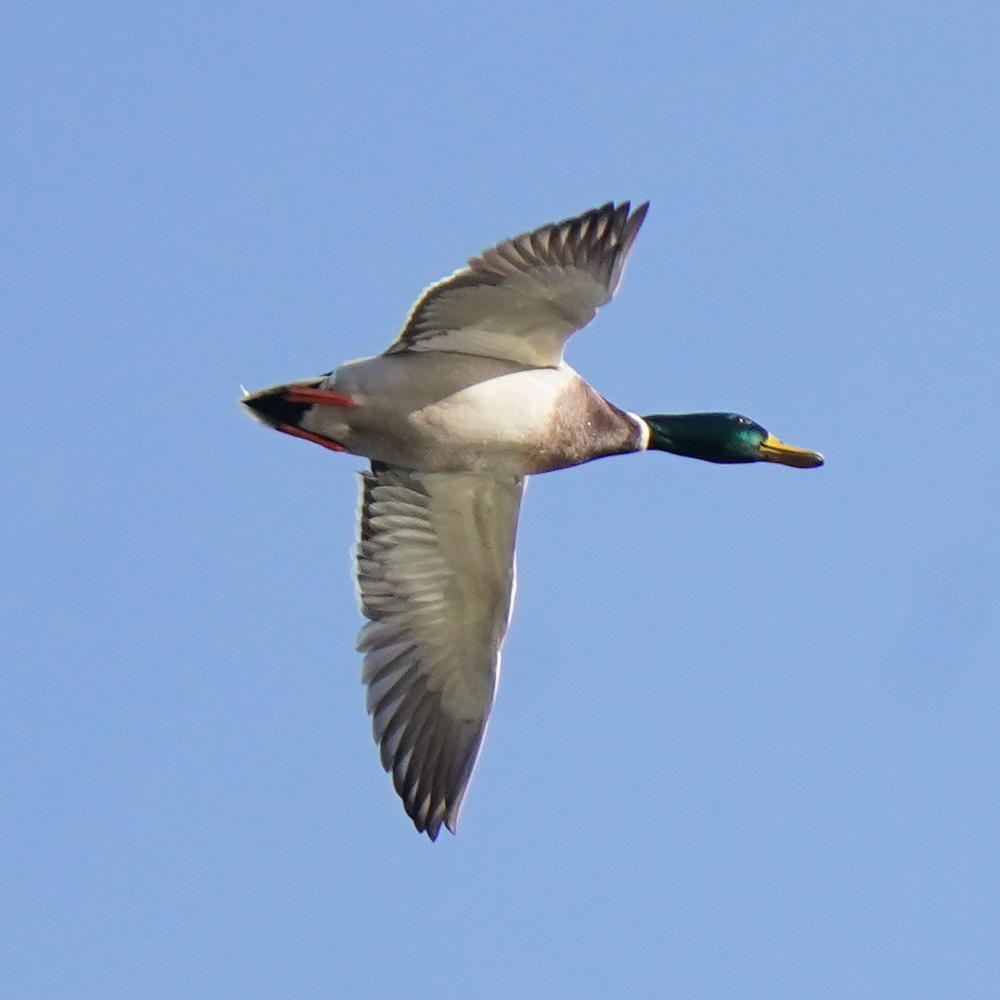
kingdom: Animalia
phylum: Chordata
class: Aves
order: Anseriformes
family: Anatidae
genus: Anas
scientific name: Anas platyrhynchos
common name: Mallard
